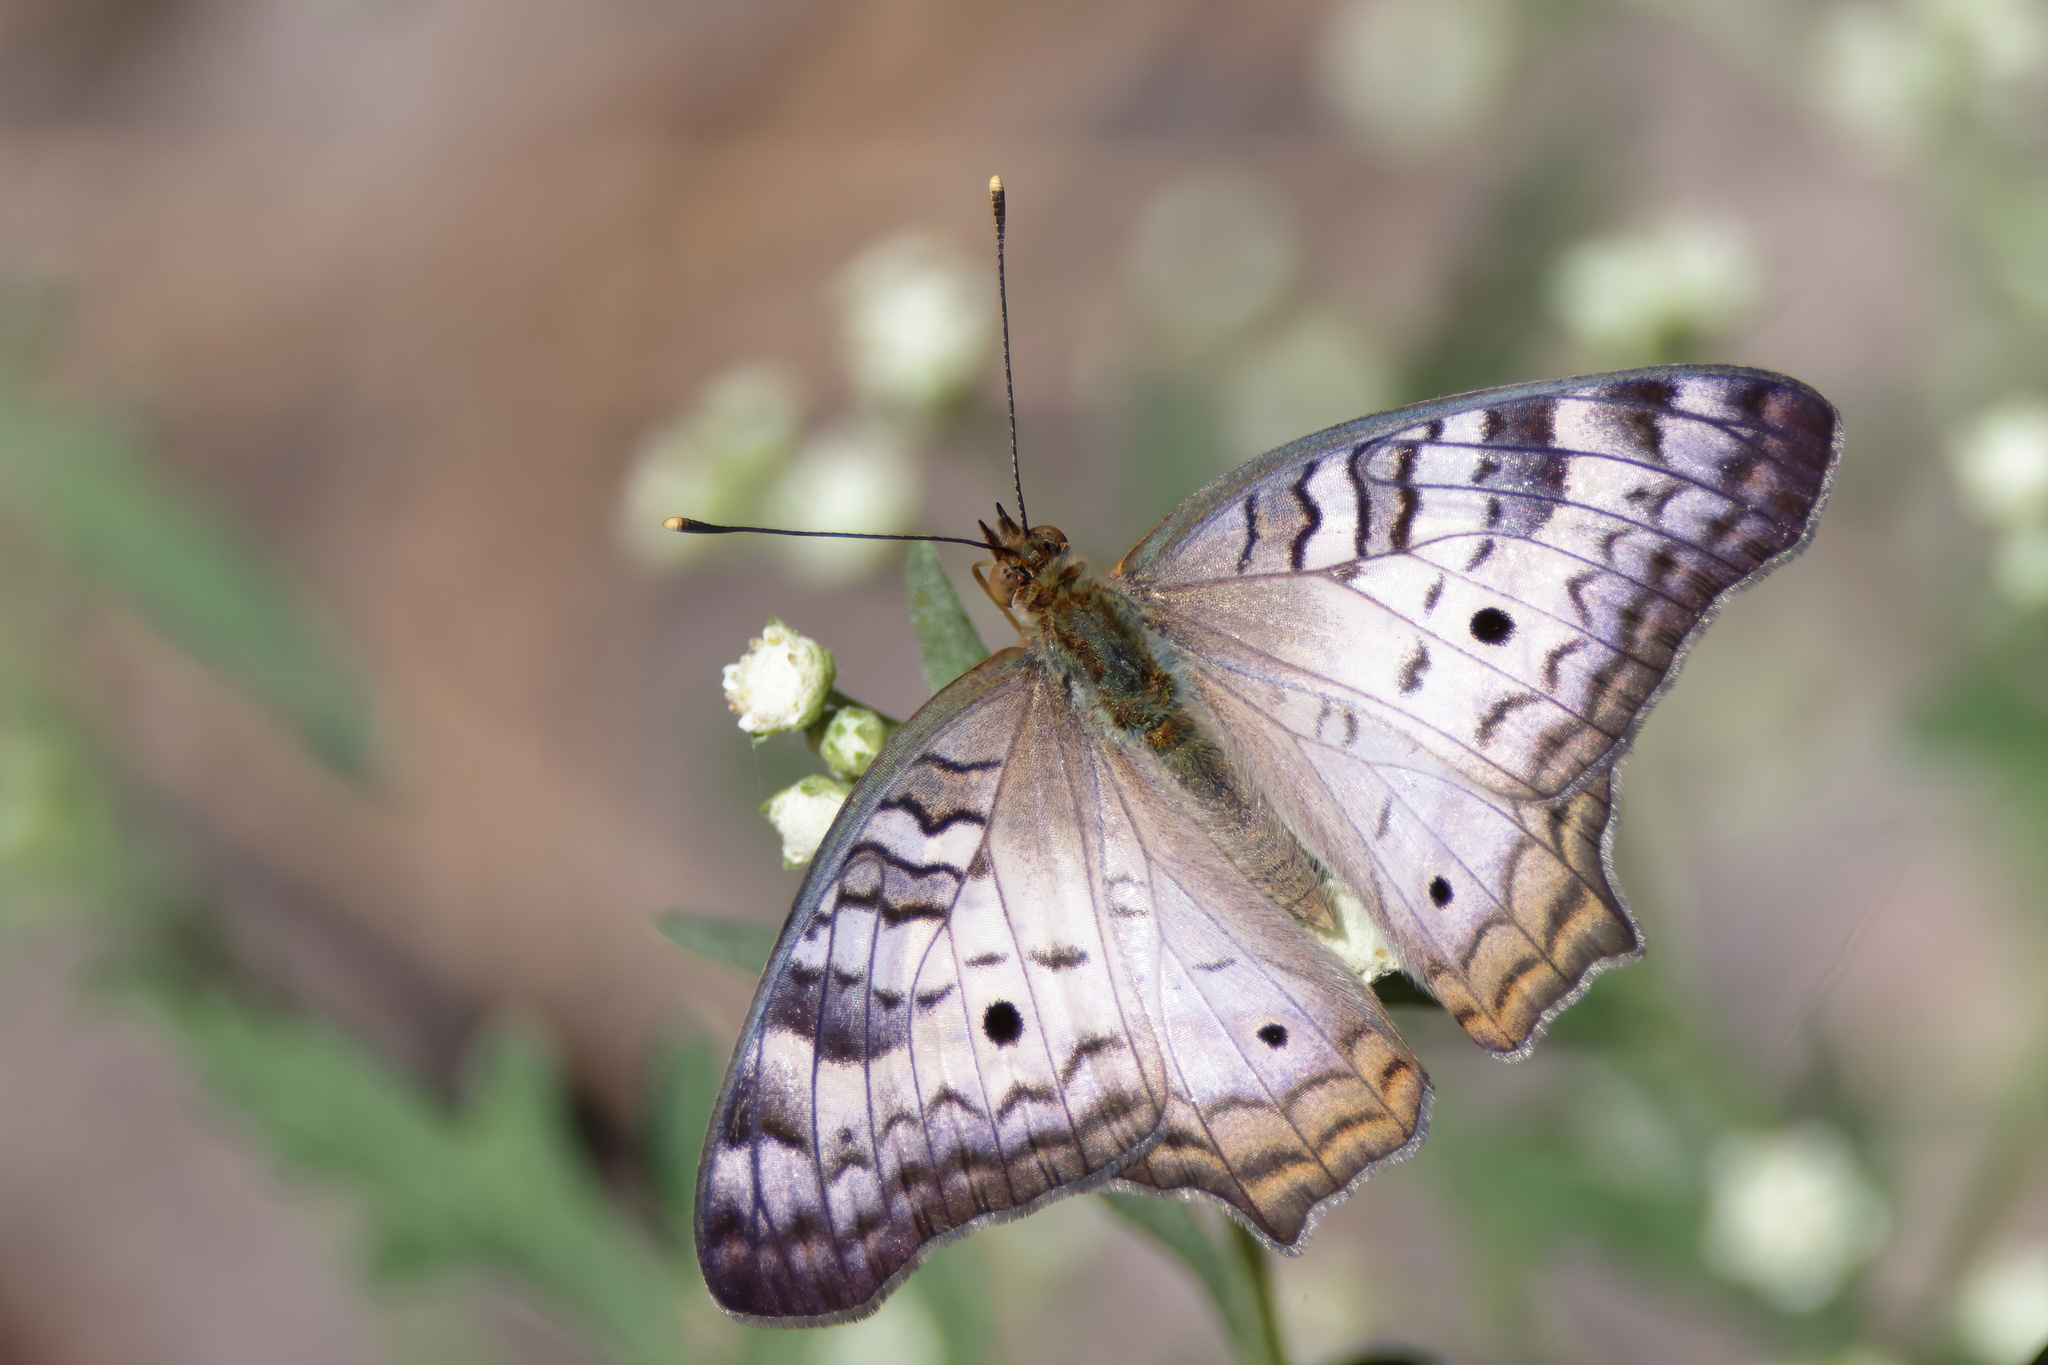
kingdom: Animalia
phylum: Arthropoda
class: Insecta
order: Lepidoptera
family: Nymphalidae
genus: Anartia
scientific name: Anartia jatrophae
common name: White peacock
